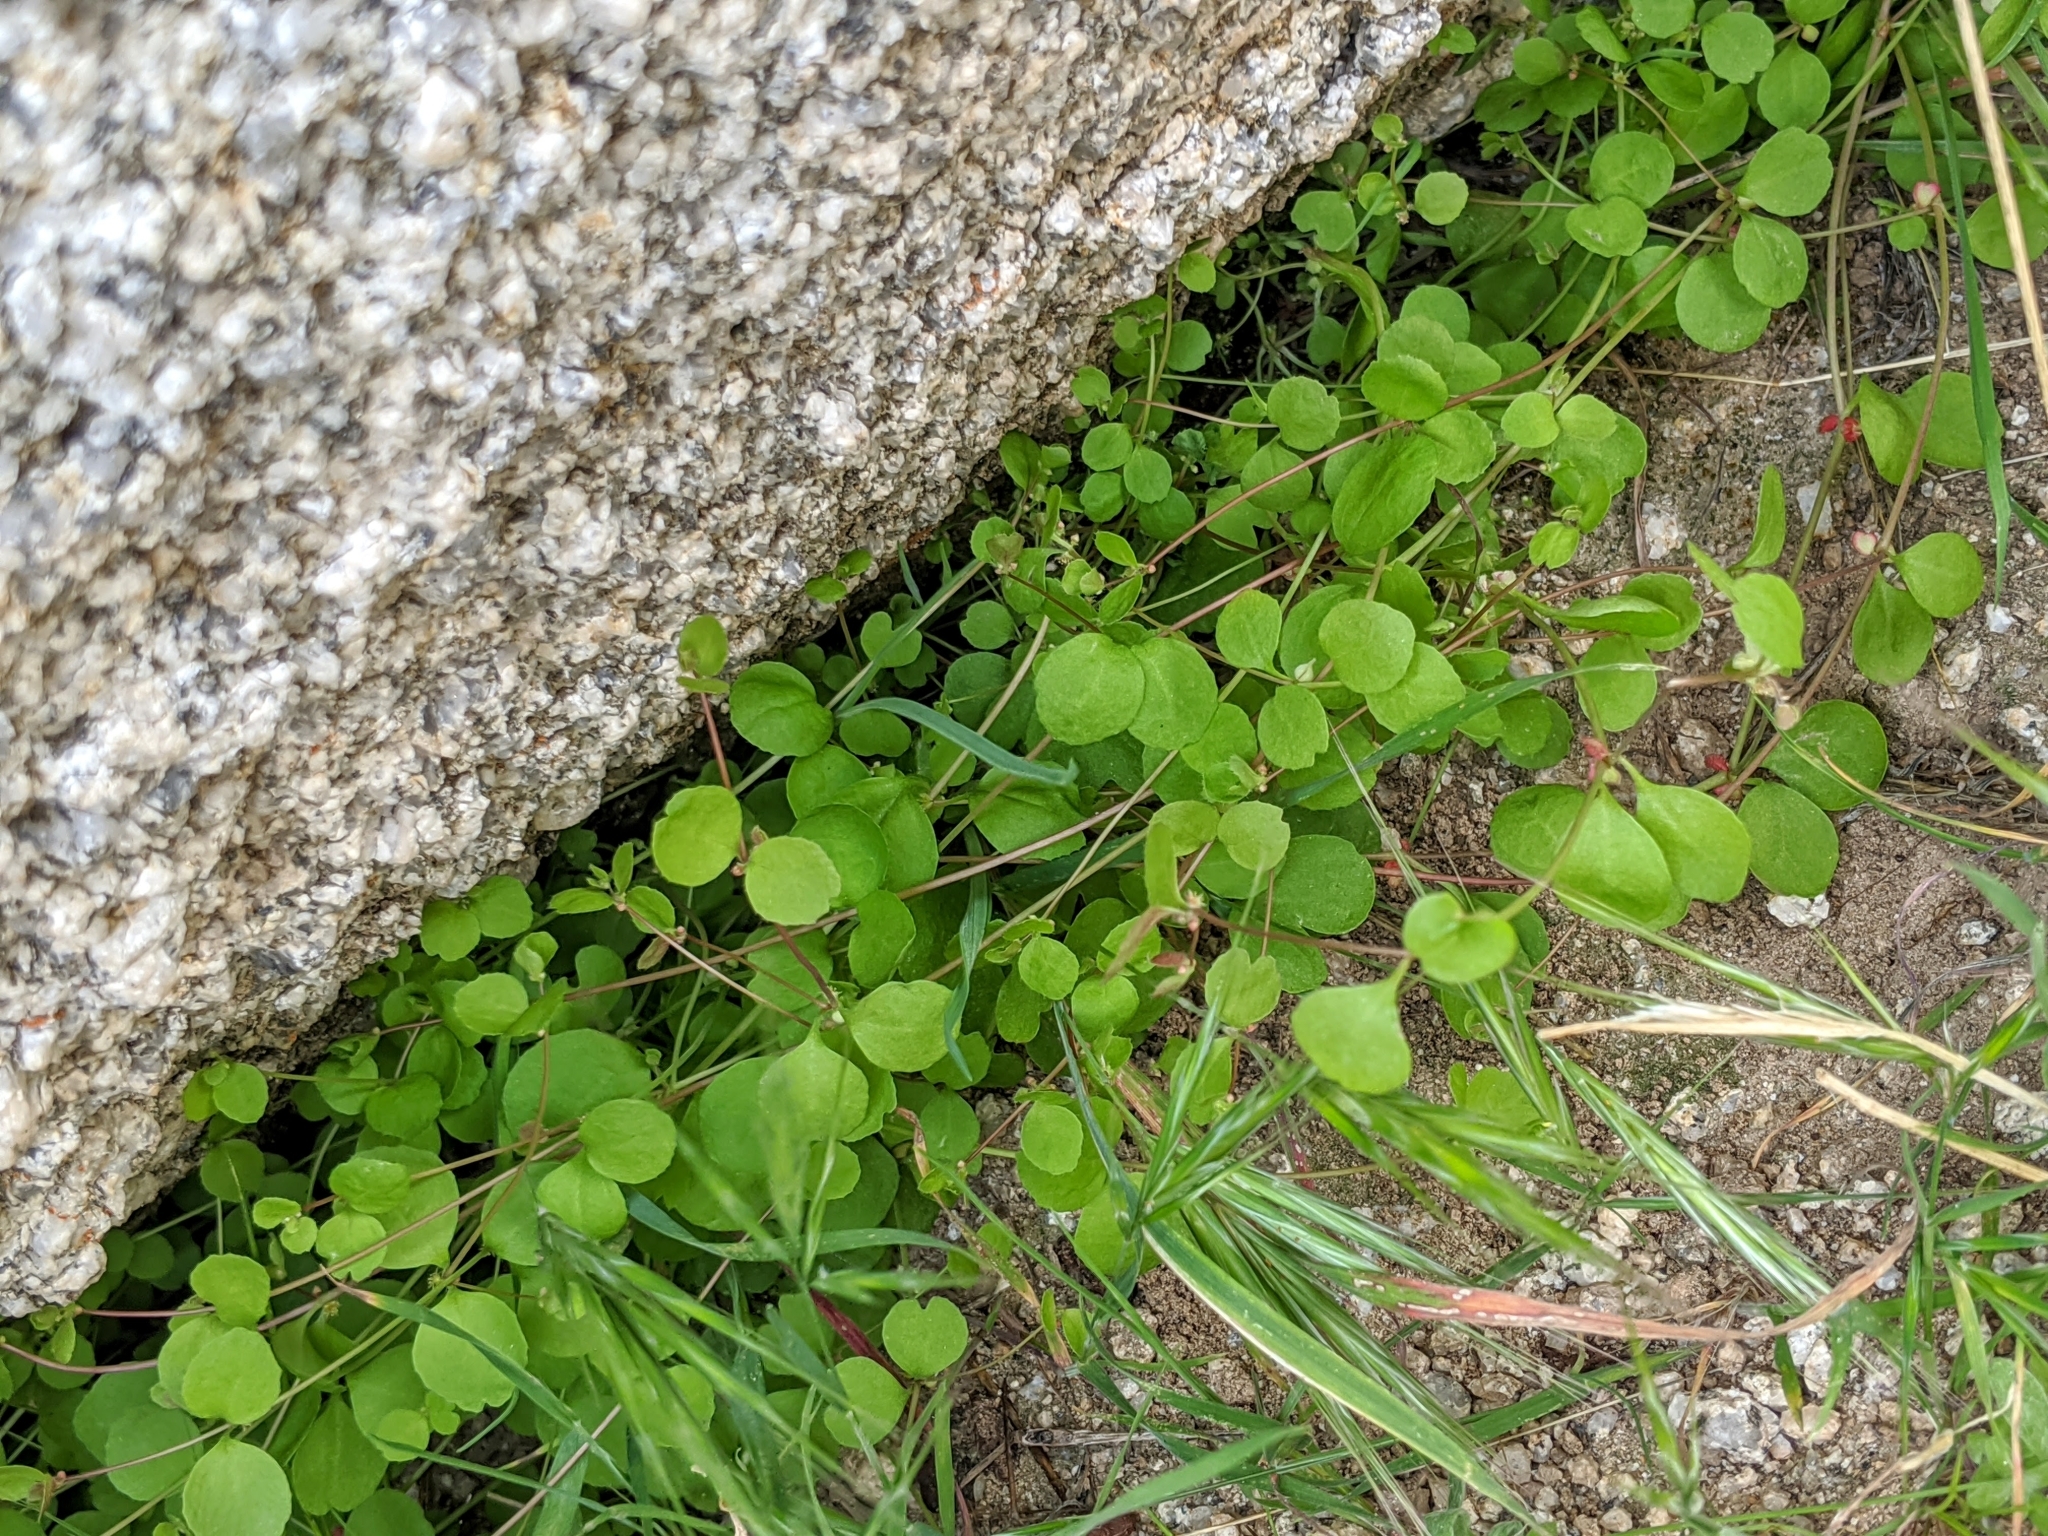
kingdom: Plantae
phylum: Tracheophyta
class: Magnoliopsida
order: Caryophyllales
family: Polygonaceae
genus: Pterostegia
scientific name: Pterostegia drymarioides
